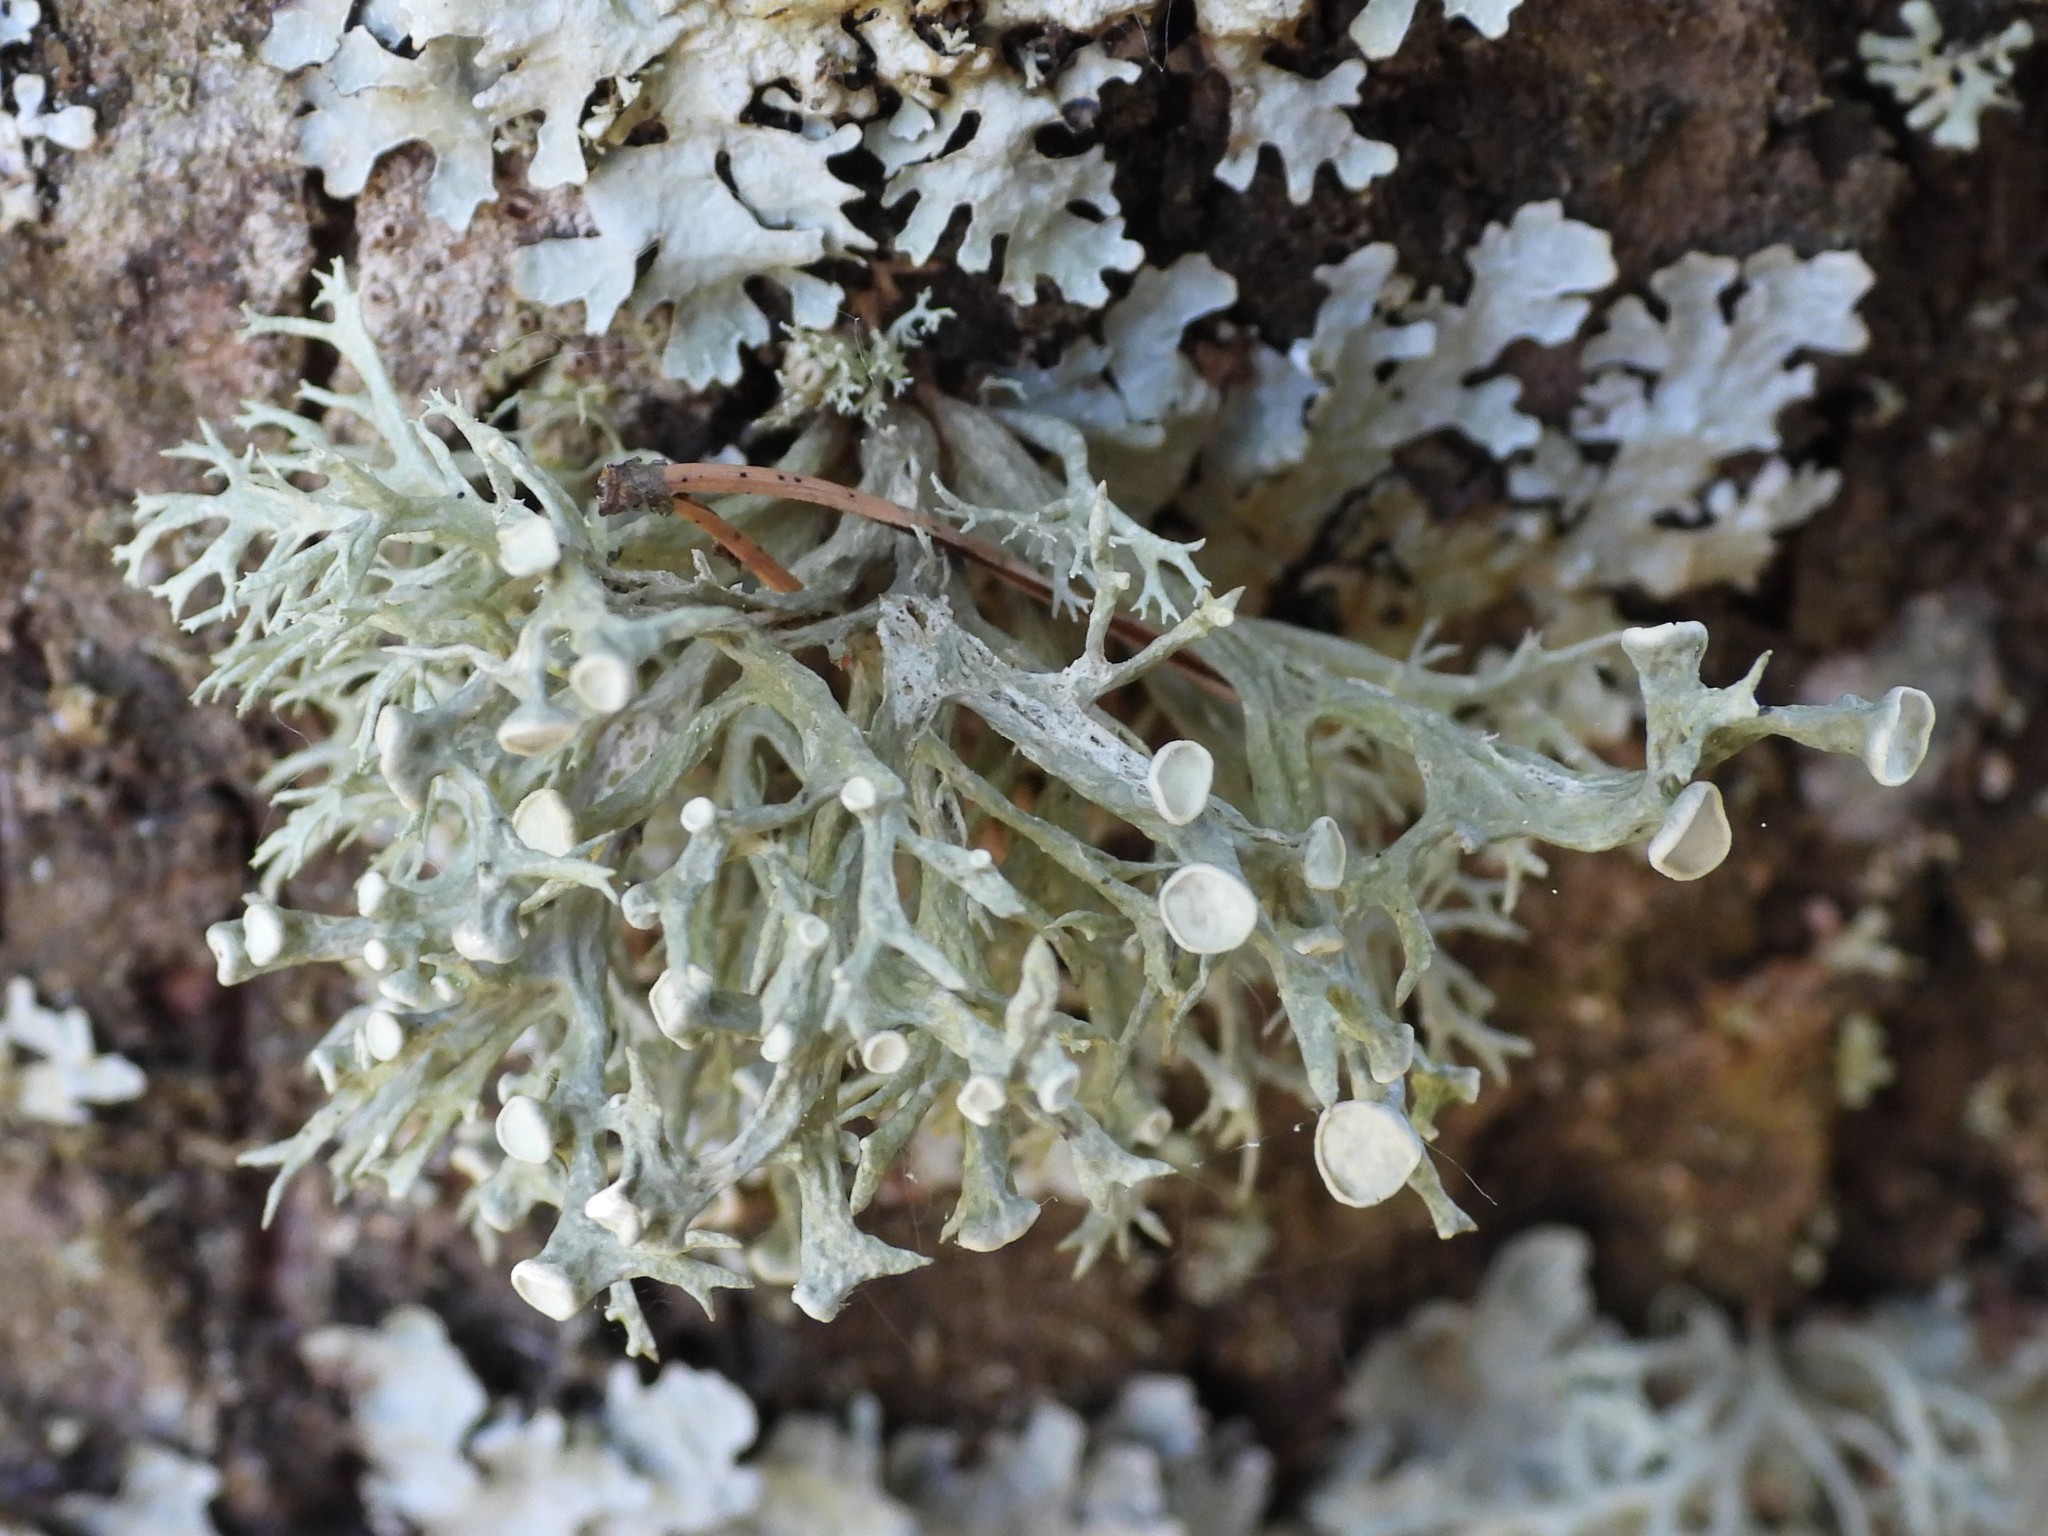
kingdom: Fungi
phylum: Ascomycota
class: Lecanoromycetes
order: Lecanorales
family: Ramalinaceae
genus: Ramalina
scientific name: Ramalina fastigiata
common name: Dotted ribbon lichen
